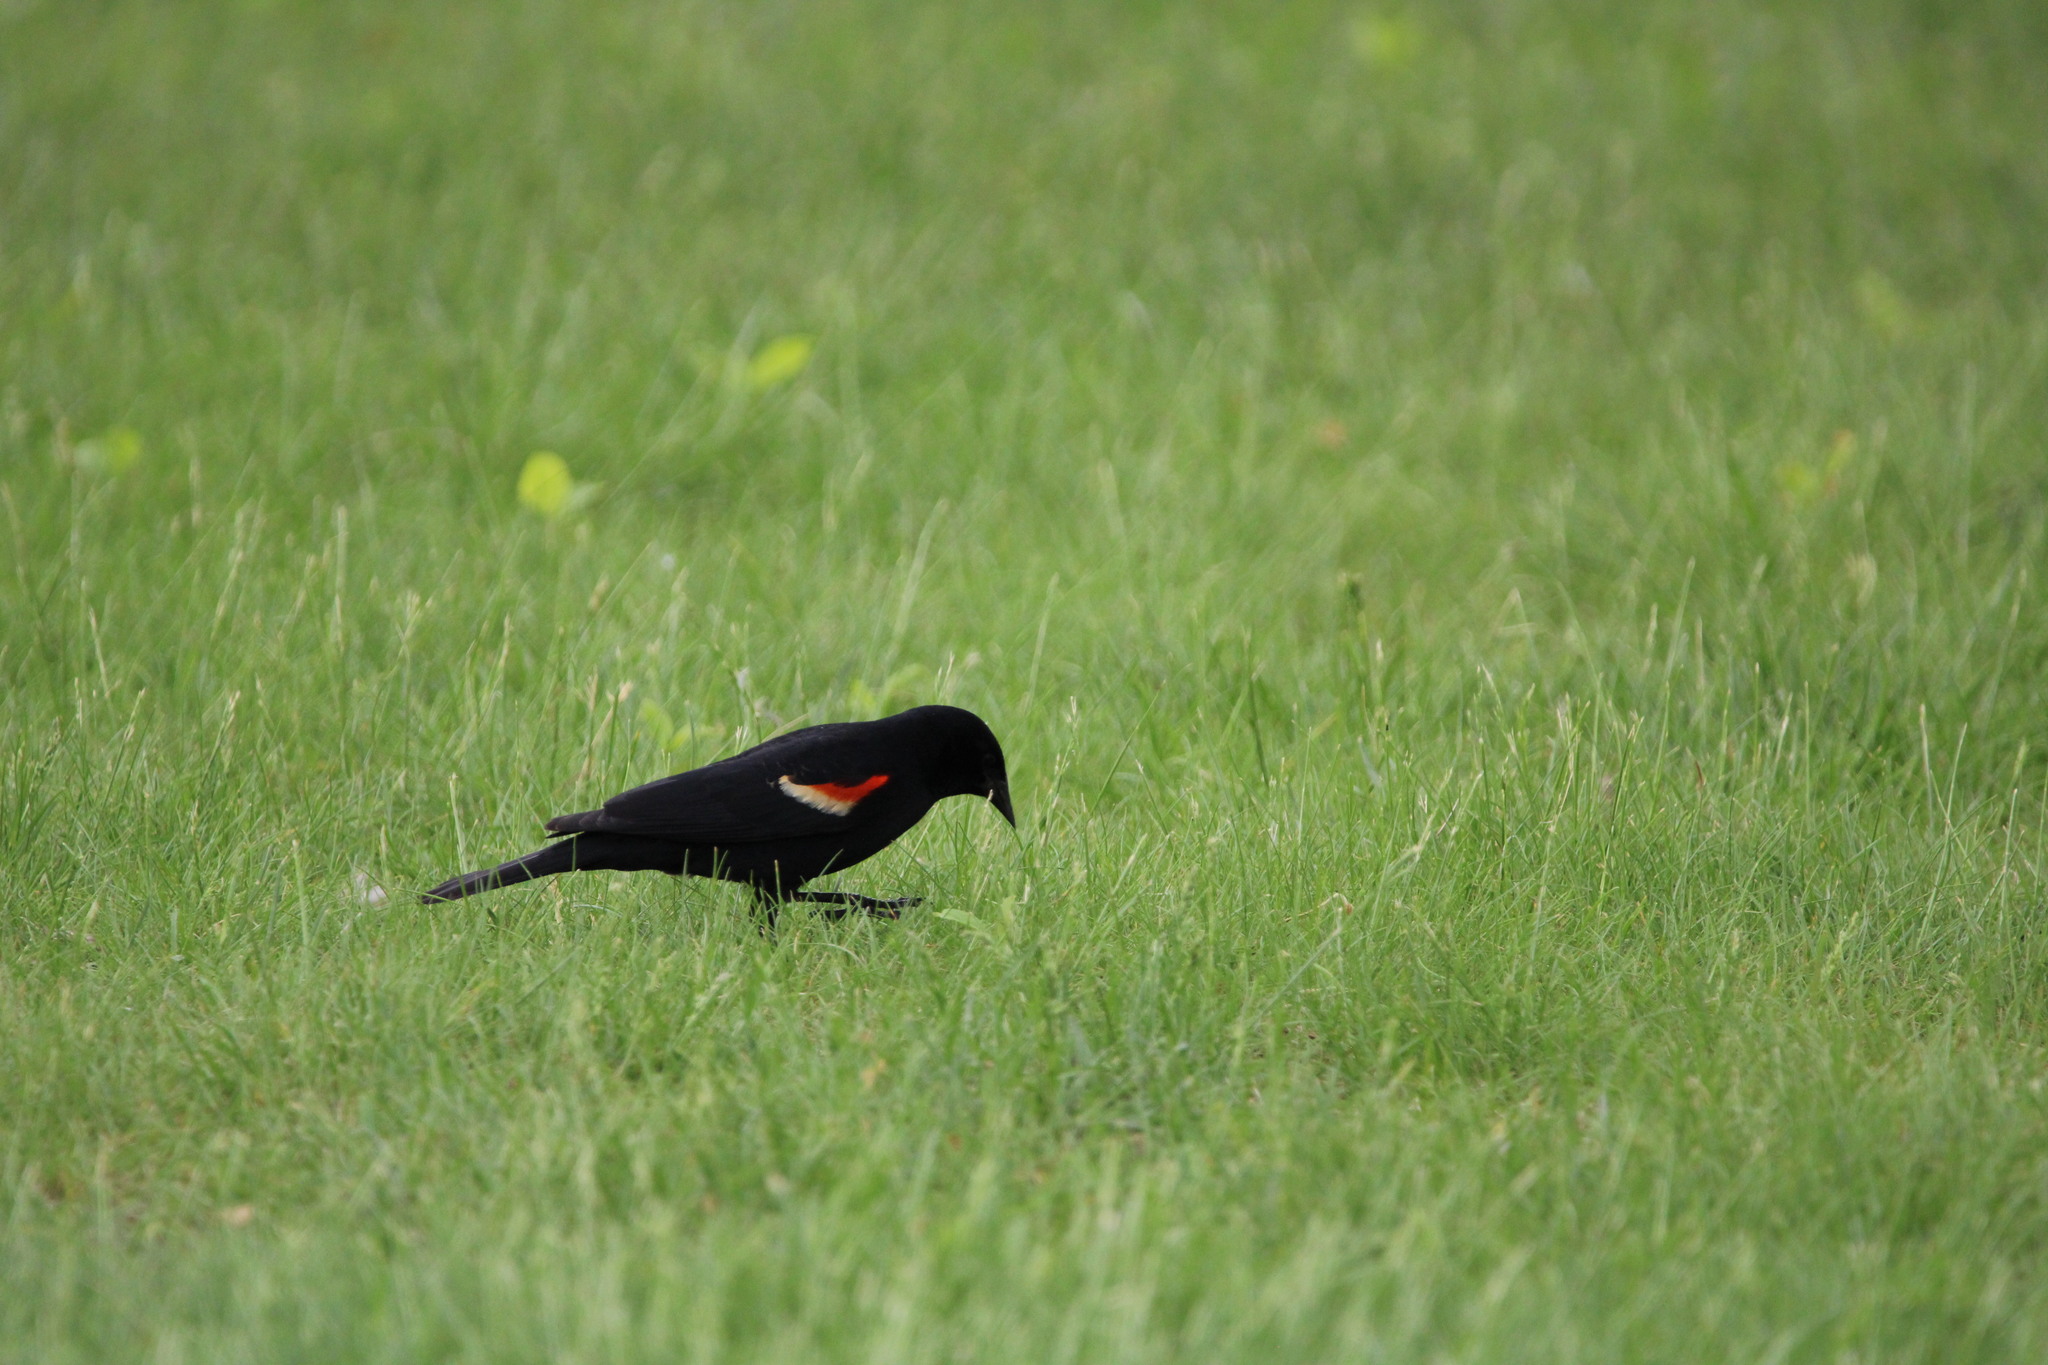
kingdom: Animalia
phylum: Chordata
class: Aves
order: Passeriformes
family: Icteridae
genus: Agelaius
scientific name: Agelaius phoeniceus
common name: Red-winged blackbird
